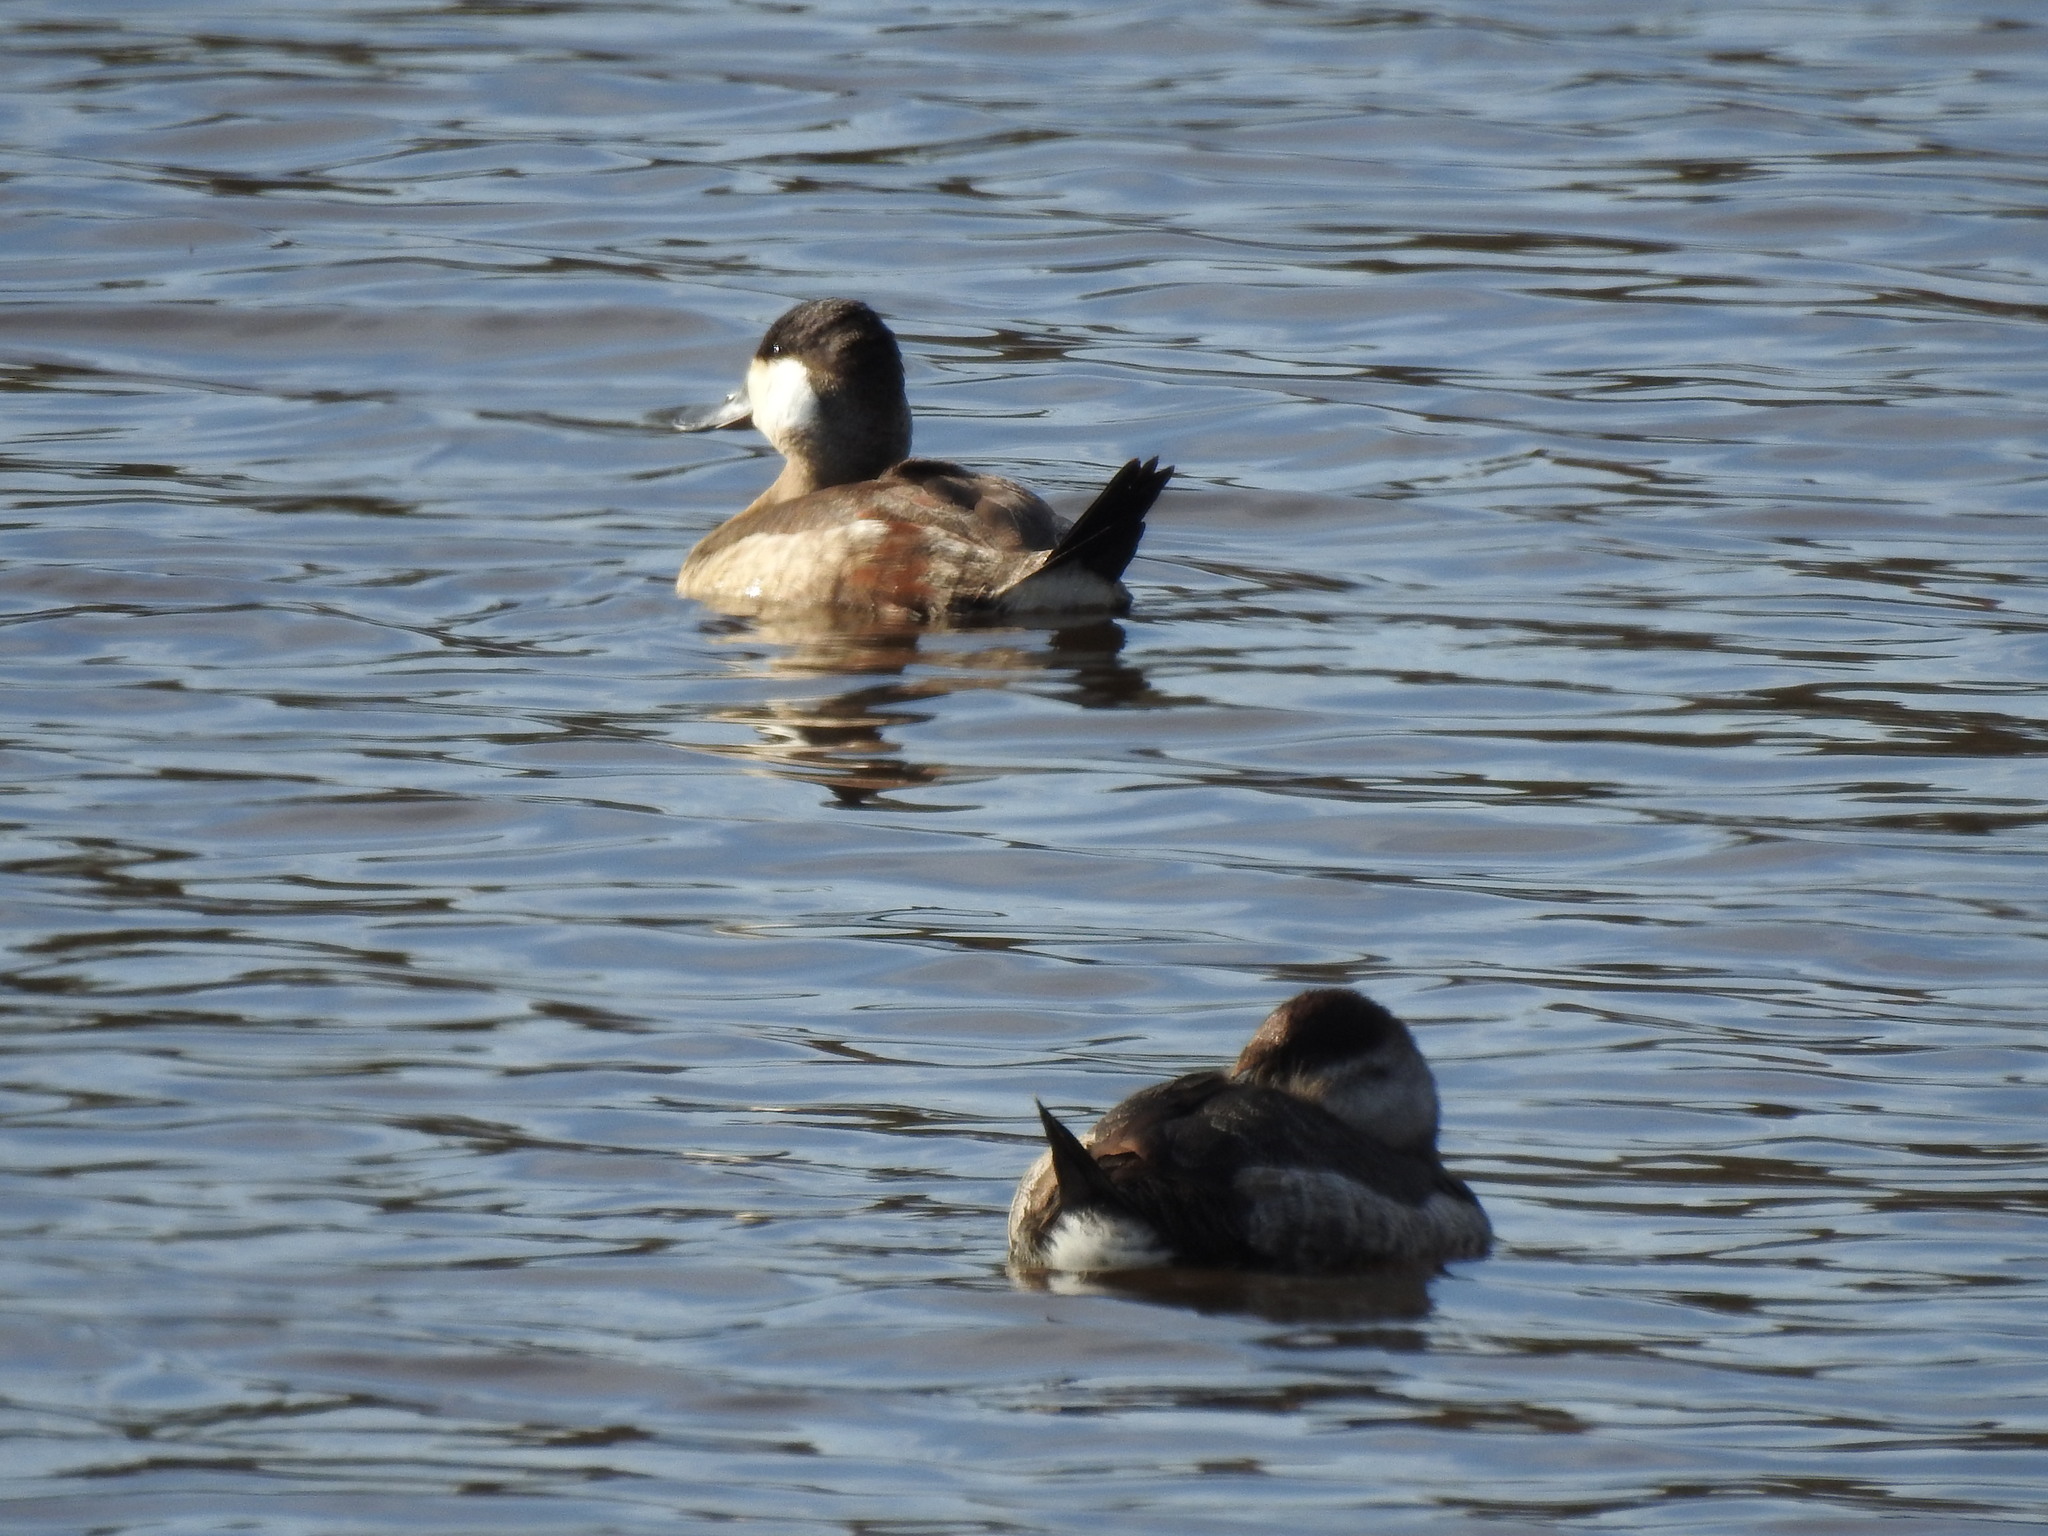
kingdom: Animalia
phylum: Chordata
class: Aves
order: Anseriformes
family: Anatidae
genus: Oxyura
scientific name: Oxyura jamaicensis
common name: Ruddy duck
